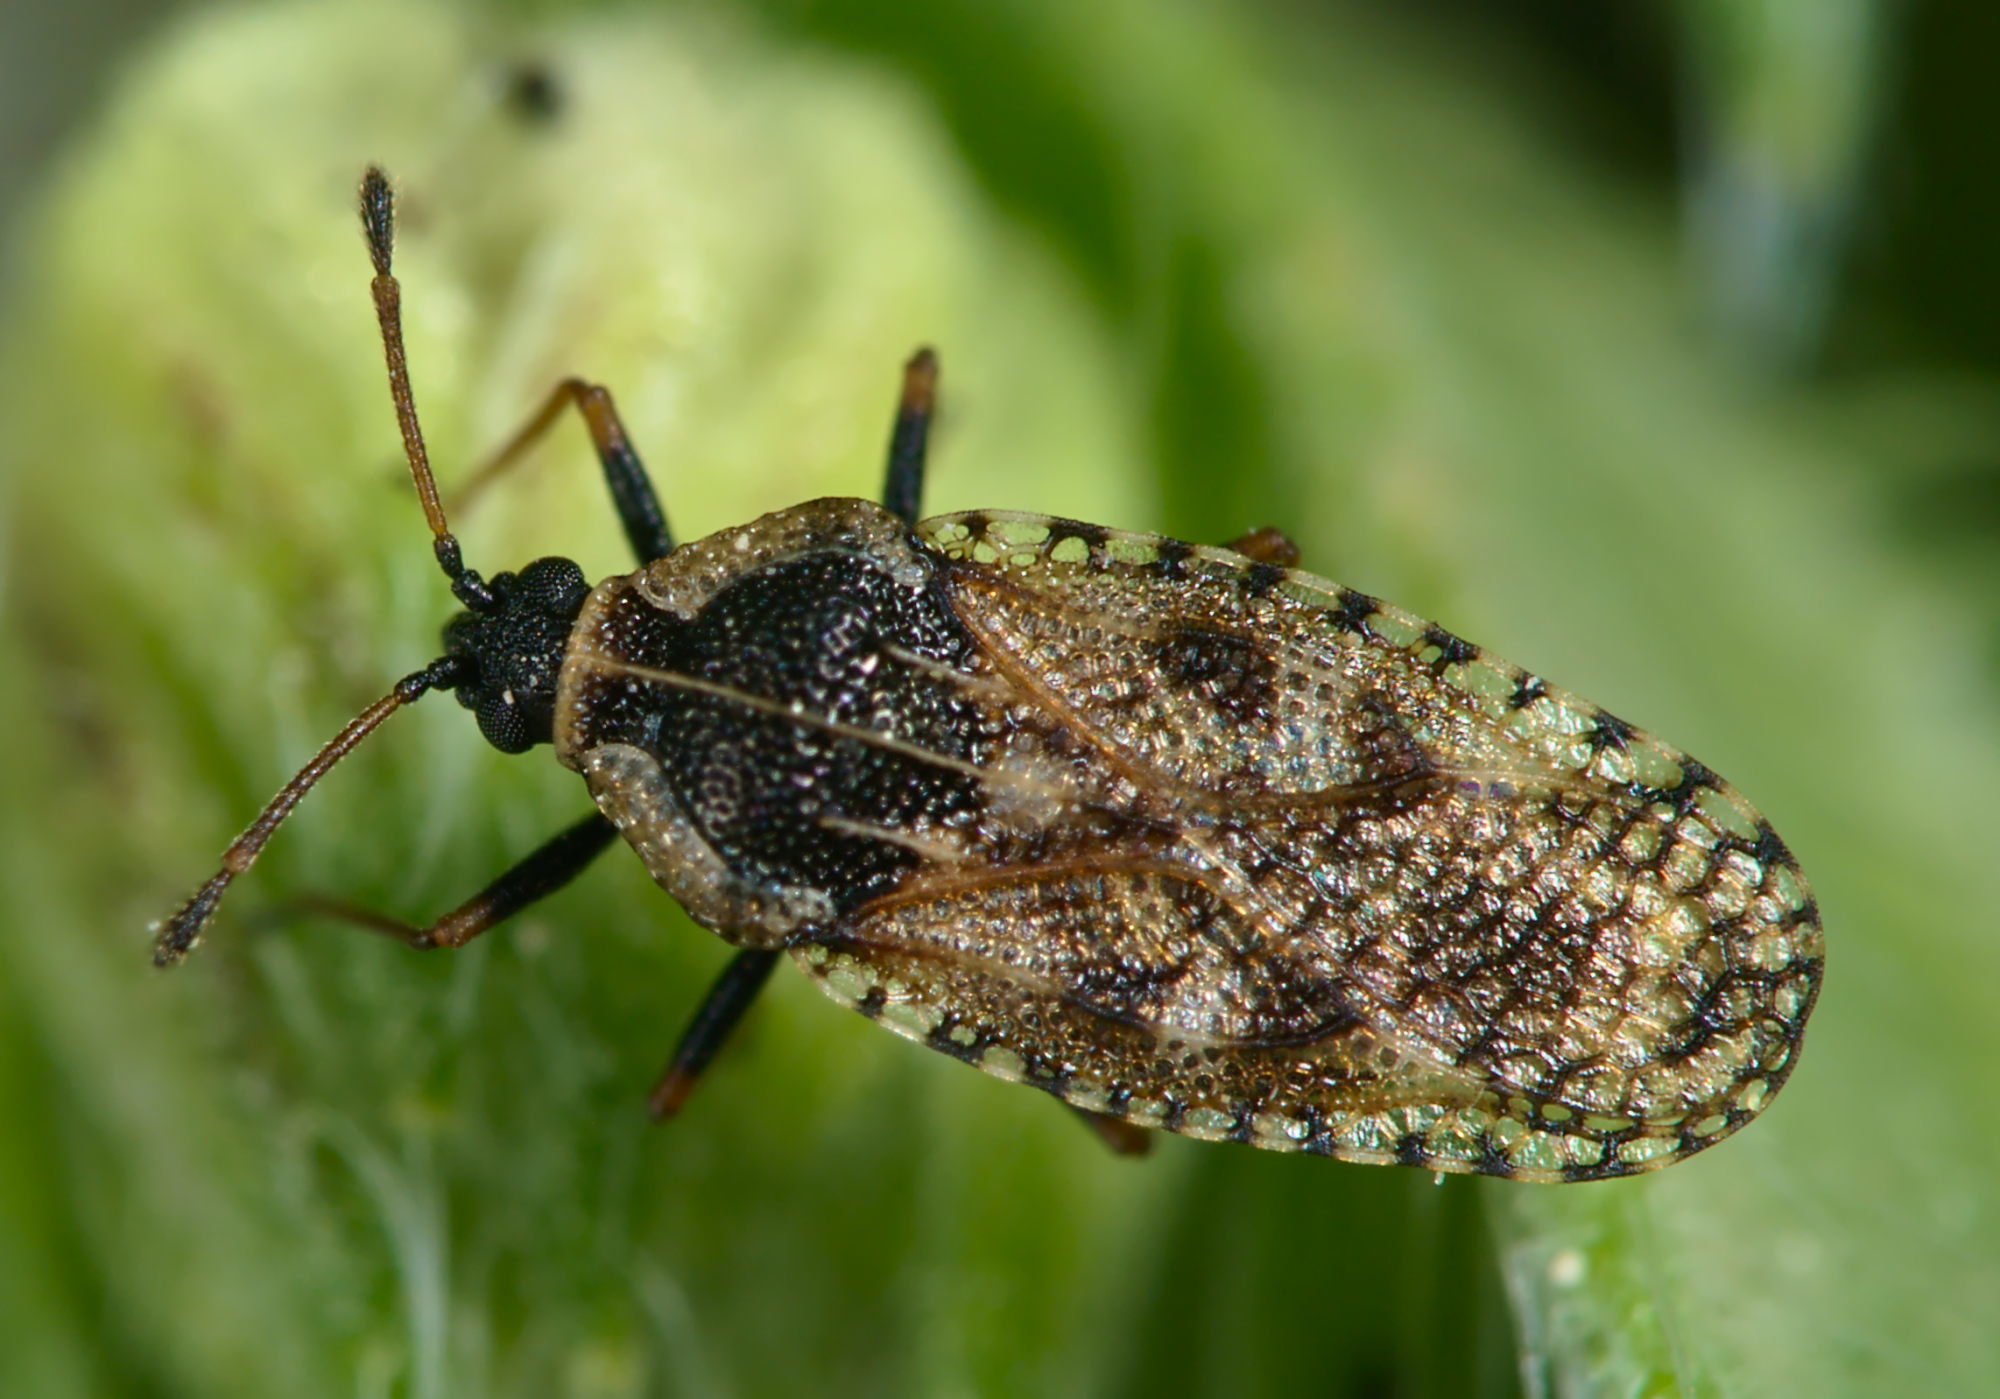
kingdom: Animalia
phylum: Arthropoda
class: Insecta
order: Hemiptera
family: Tingidae
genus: Dictyla
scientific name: Dictyla echii
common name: Lace bug
